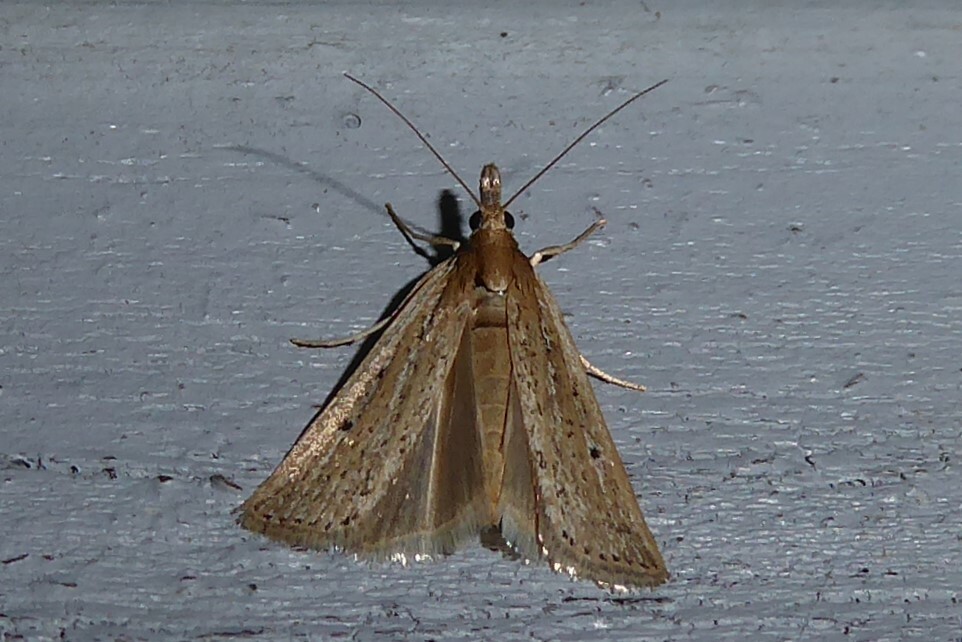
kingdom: Animalia
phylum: Arthropoda
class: Insecta
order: Lepidoptera
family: Crambidae
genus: Eudonia
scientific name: Eudonia sabulosella
